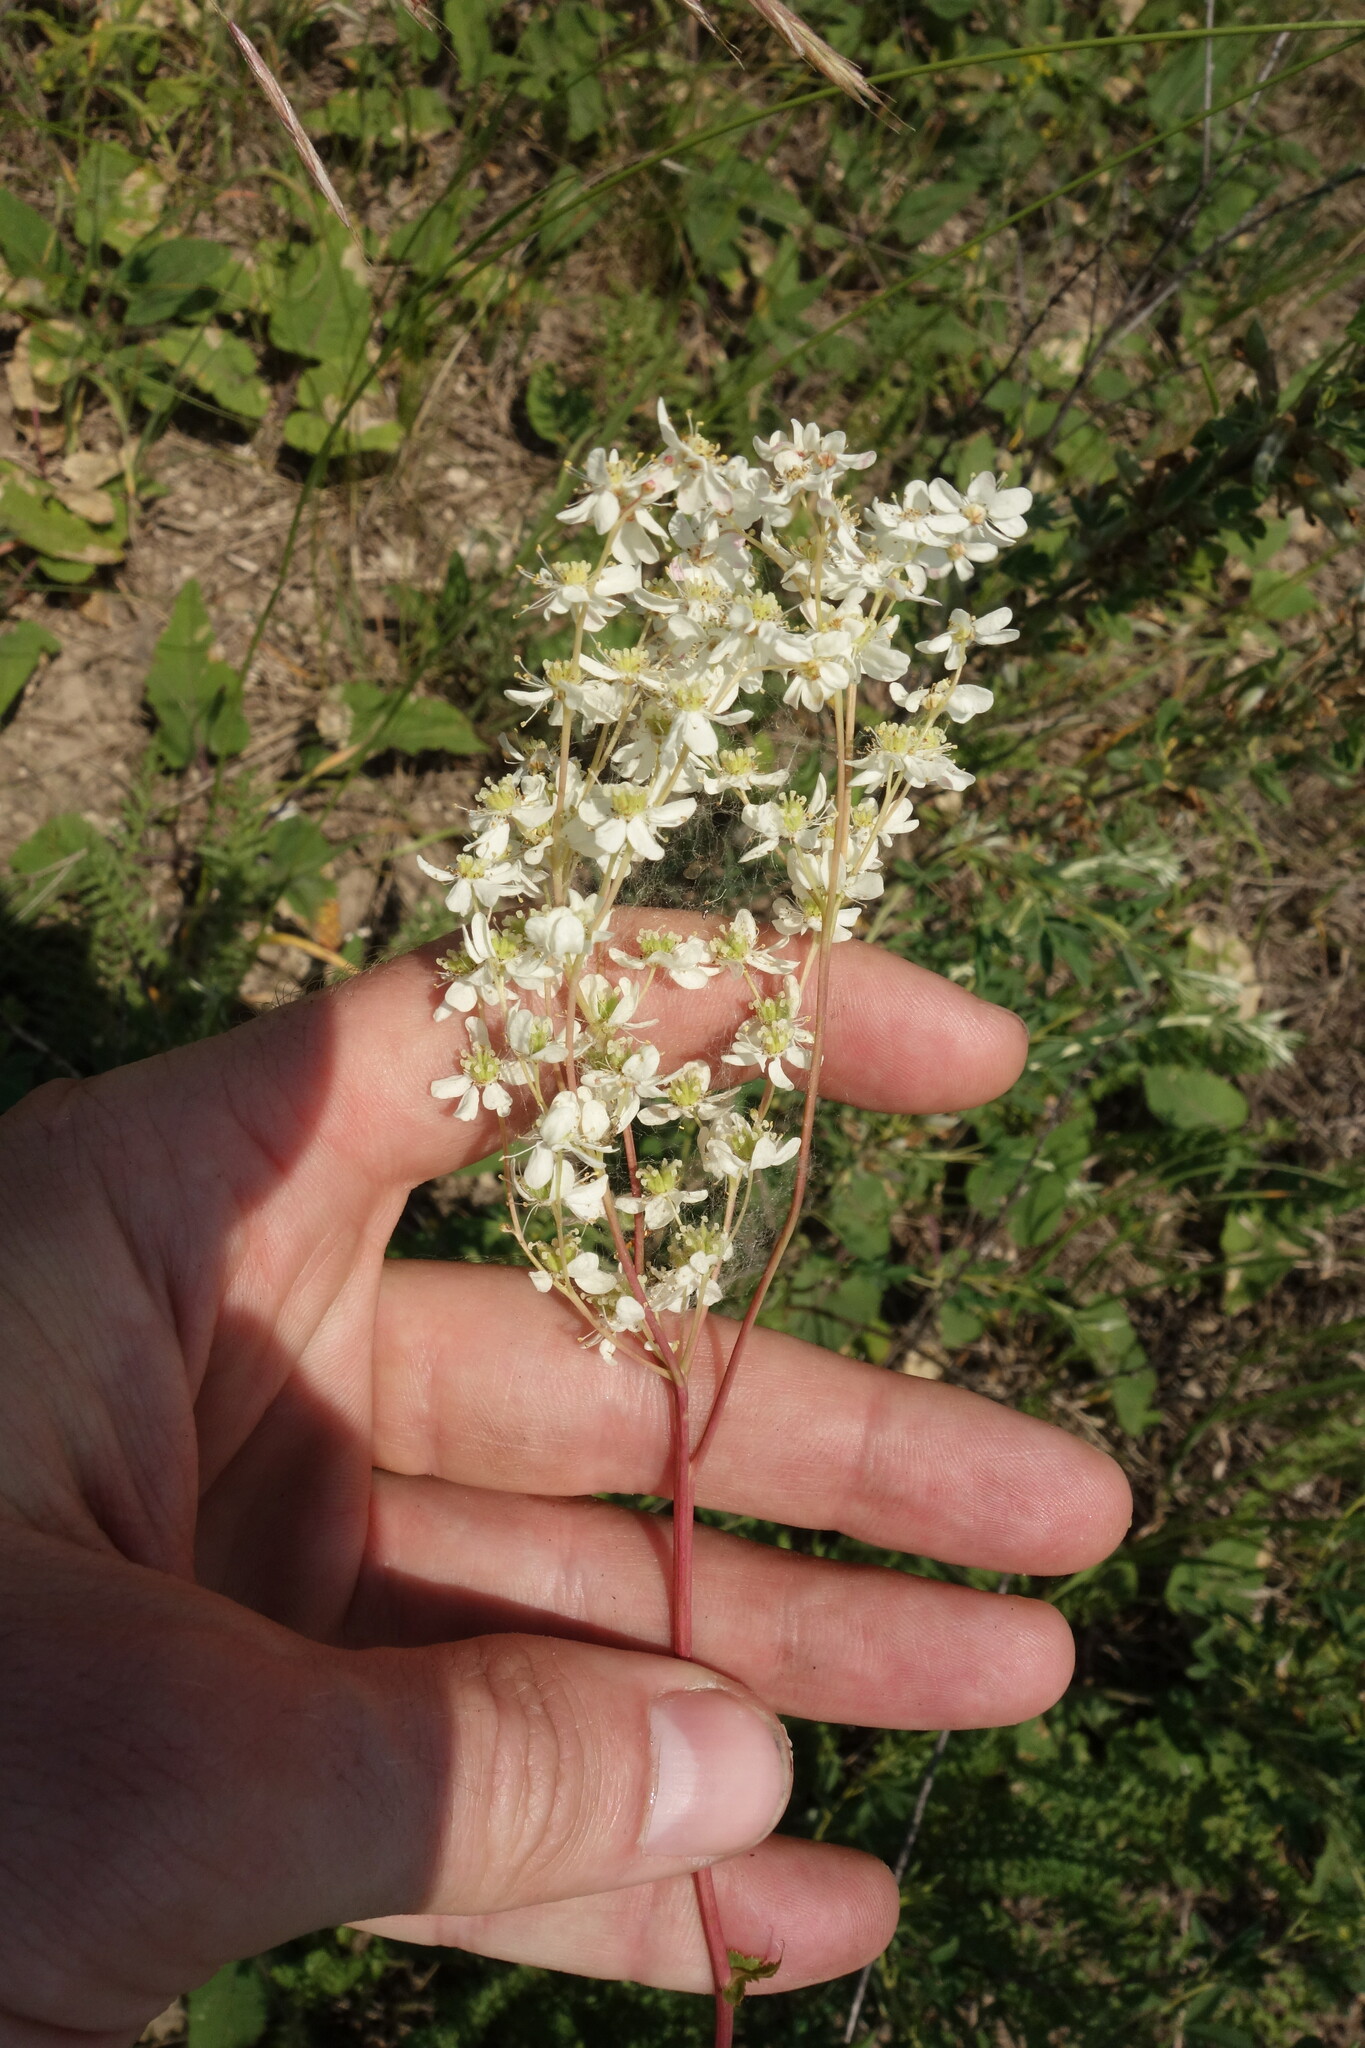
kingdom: Plantae
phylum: Tracheophyta
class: Magnoliopsida
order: Rosales
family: Rosaceae
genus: Filipendula
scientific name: Filipendula vulgaris
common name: Dropwort
